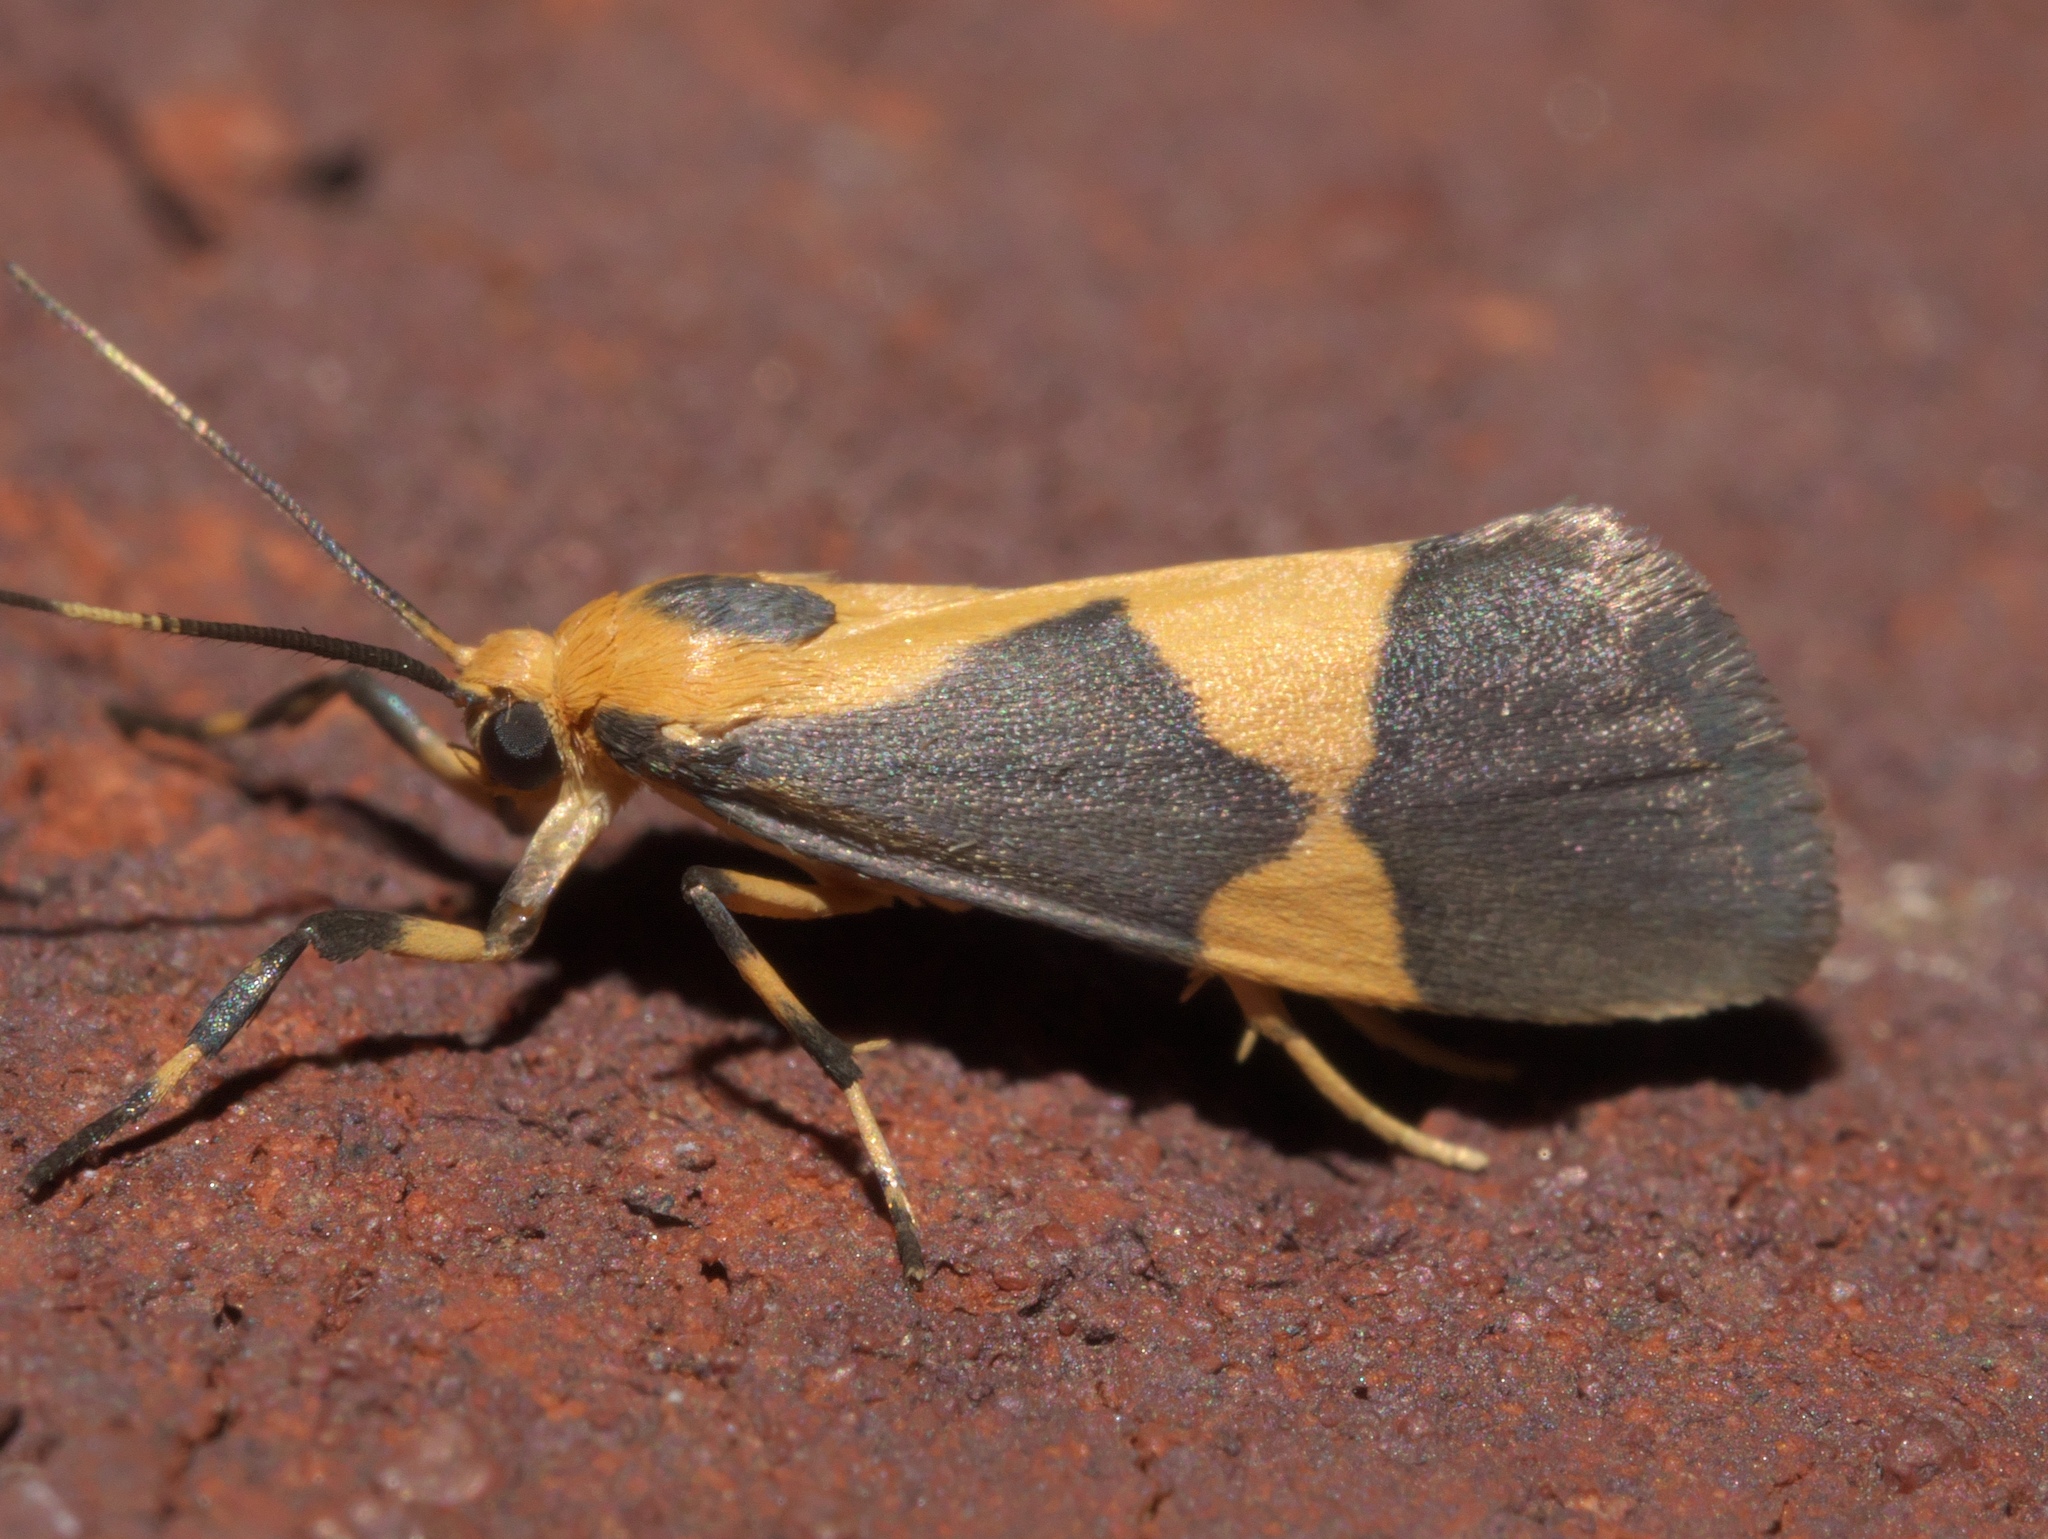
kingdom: Animalia
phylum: Arthropoda
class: Insecta
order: Lepidoptera
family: Erebidae
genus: Cisthene
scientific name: Cisthene unifascia
